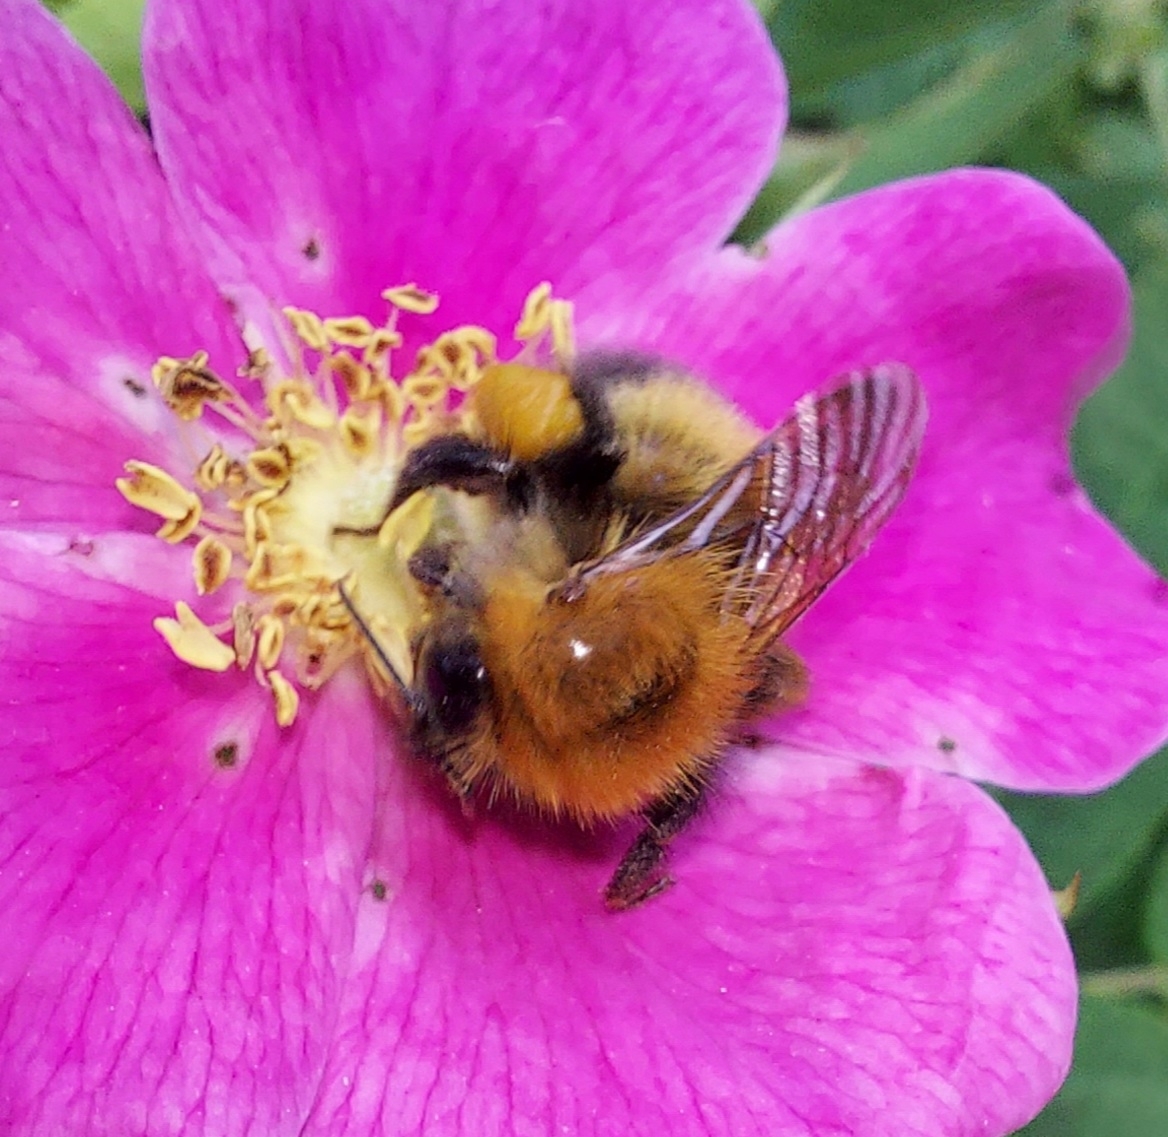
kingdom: Animalia
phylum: Arthropoda
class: Insecta
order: Hymenoptera
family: Apidae
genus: Bombus
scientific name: Bombus hypnorum
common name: New garden bumblebee
